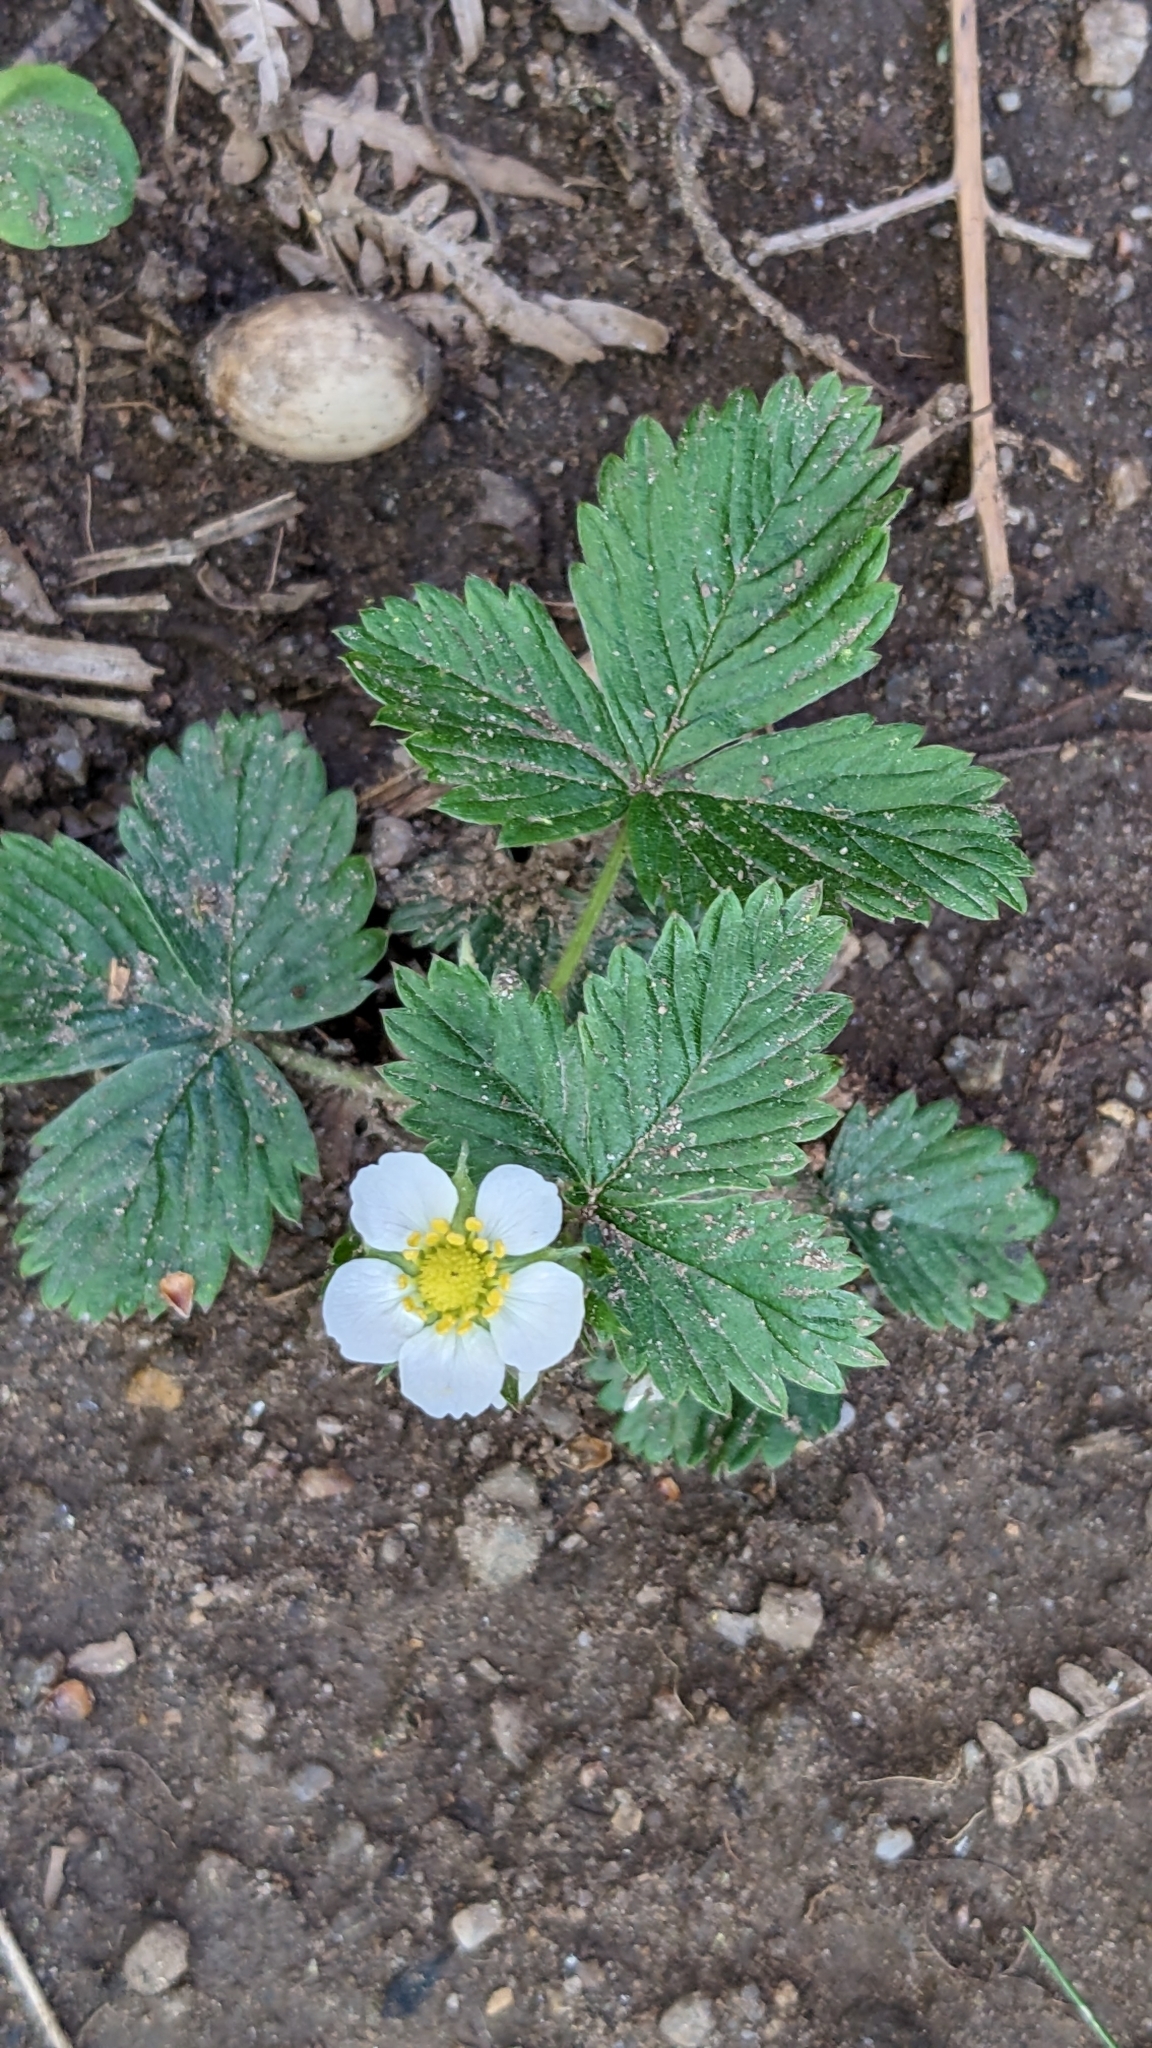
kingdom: Plantae
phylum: Tracheophyta
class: Magnoliopsida
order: Rosales
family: Rosaceae
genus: Fragaria
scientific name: Fragaria vesca
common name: Wild strawberry
